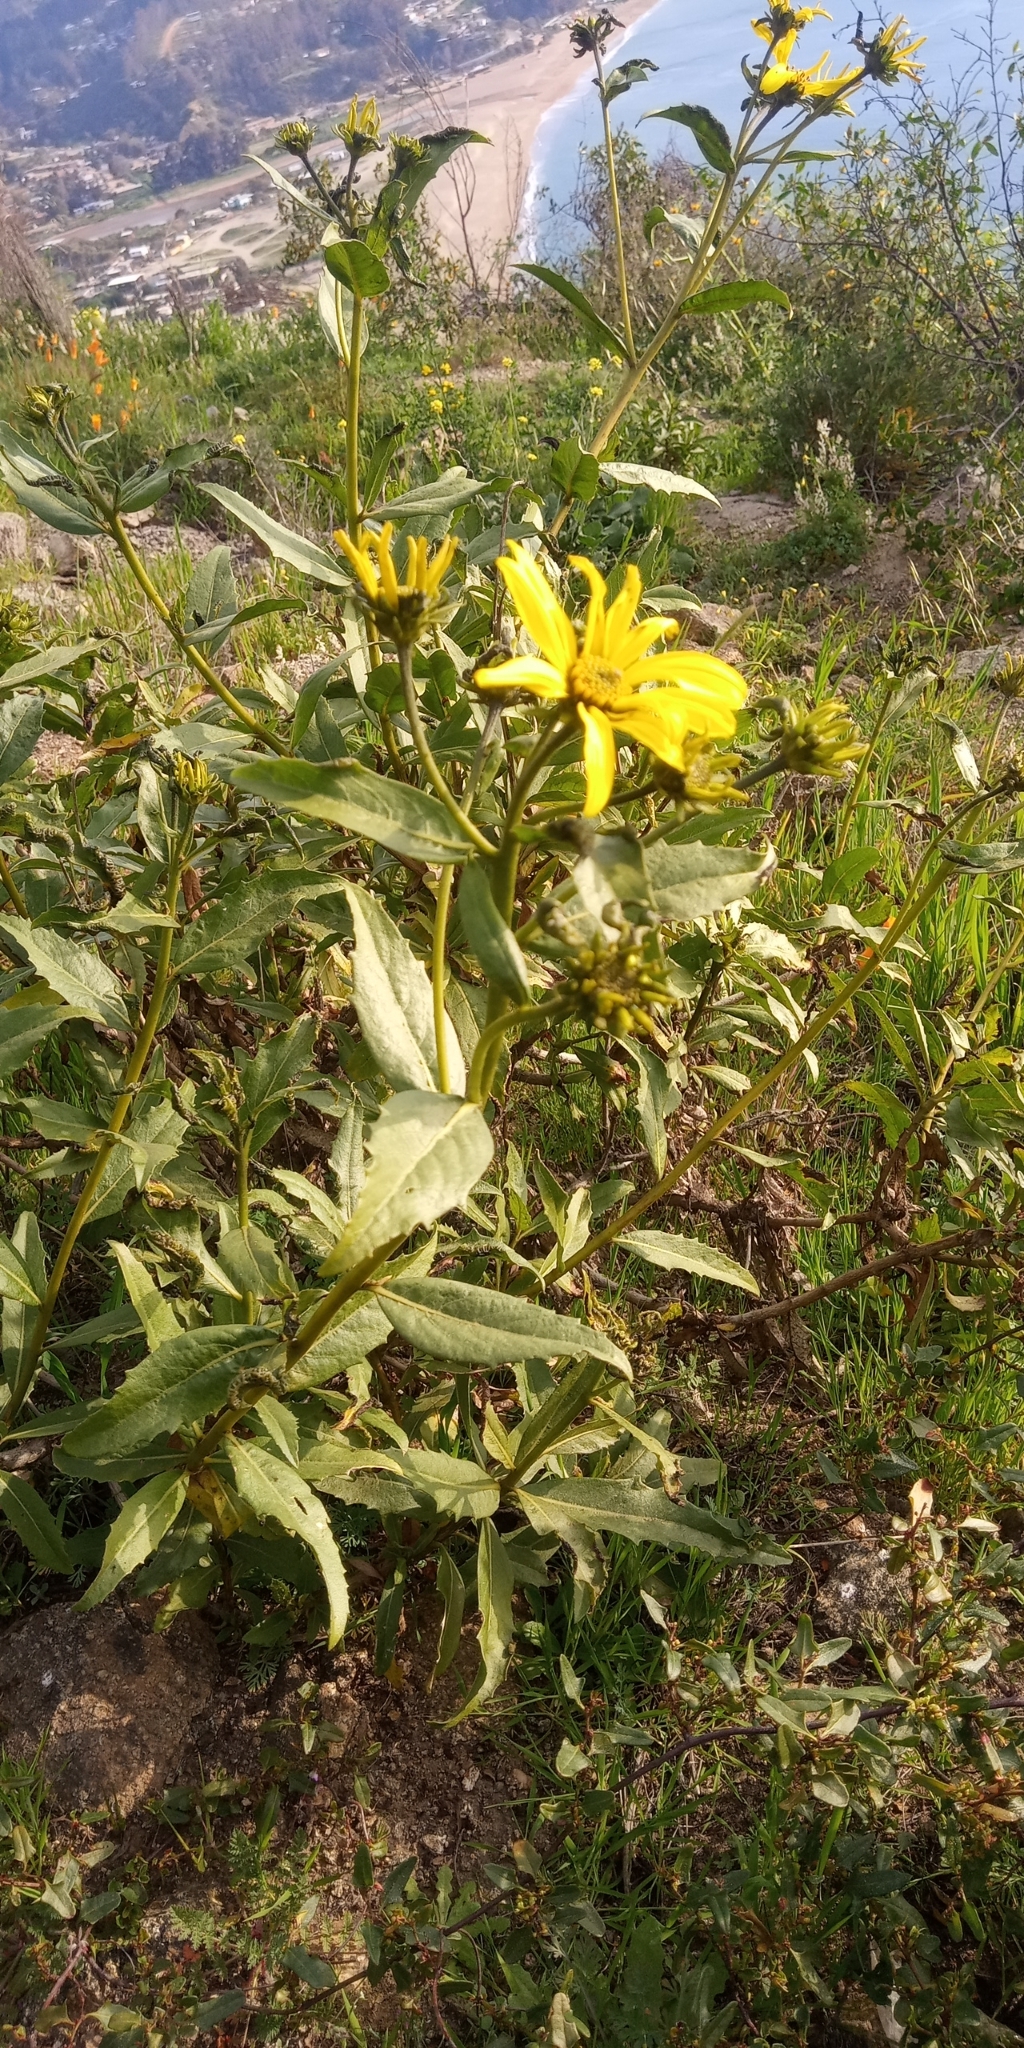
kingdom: Plantae
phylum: Tracheophyta
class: Magnoliopsida
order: Asterales
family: Asteraceae
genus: Flourensia
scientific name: Flourensia thurifera
